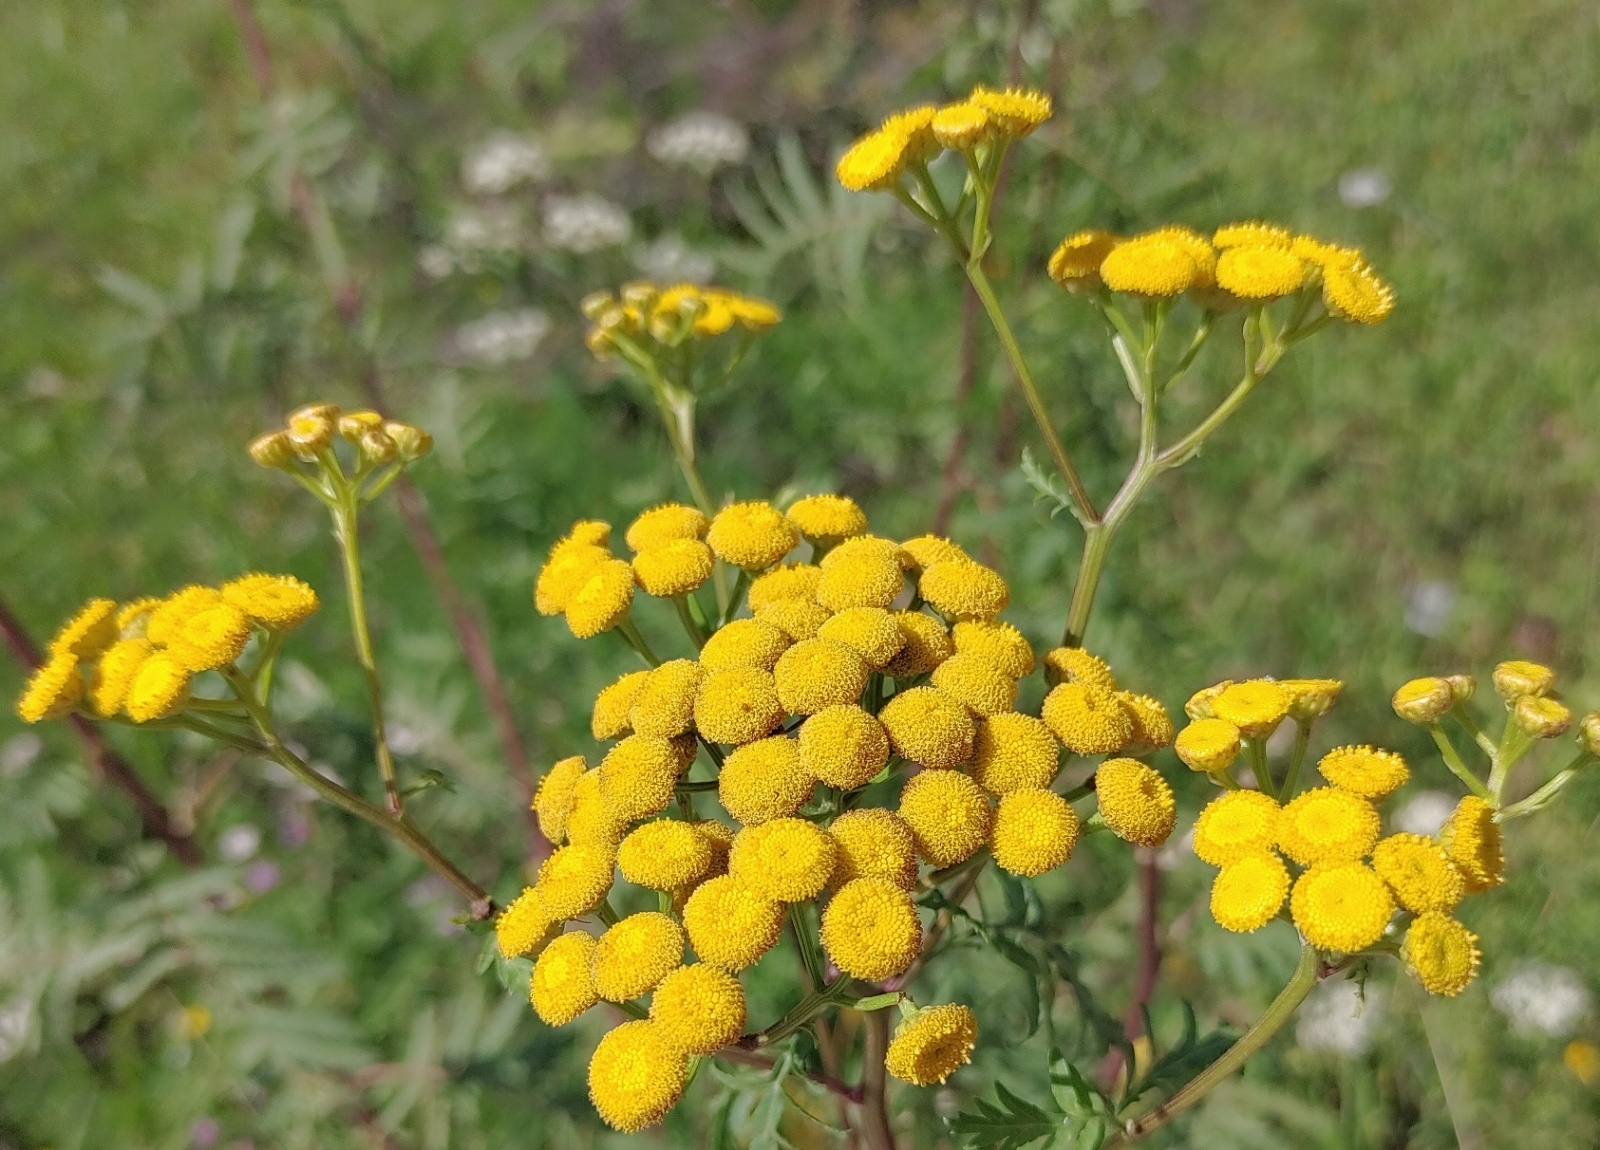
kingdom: Plantae
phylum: Tracheophyta
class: Magnoliopsida
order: Asterales
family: Asteraceae
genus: Tanacetum
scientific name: Tanacetum vulgare
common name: Common tansy
